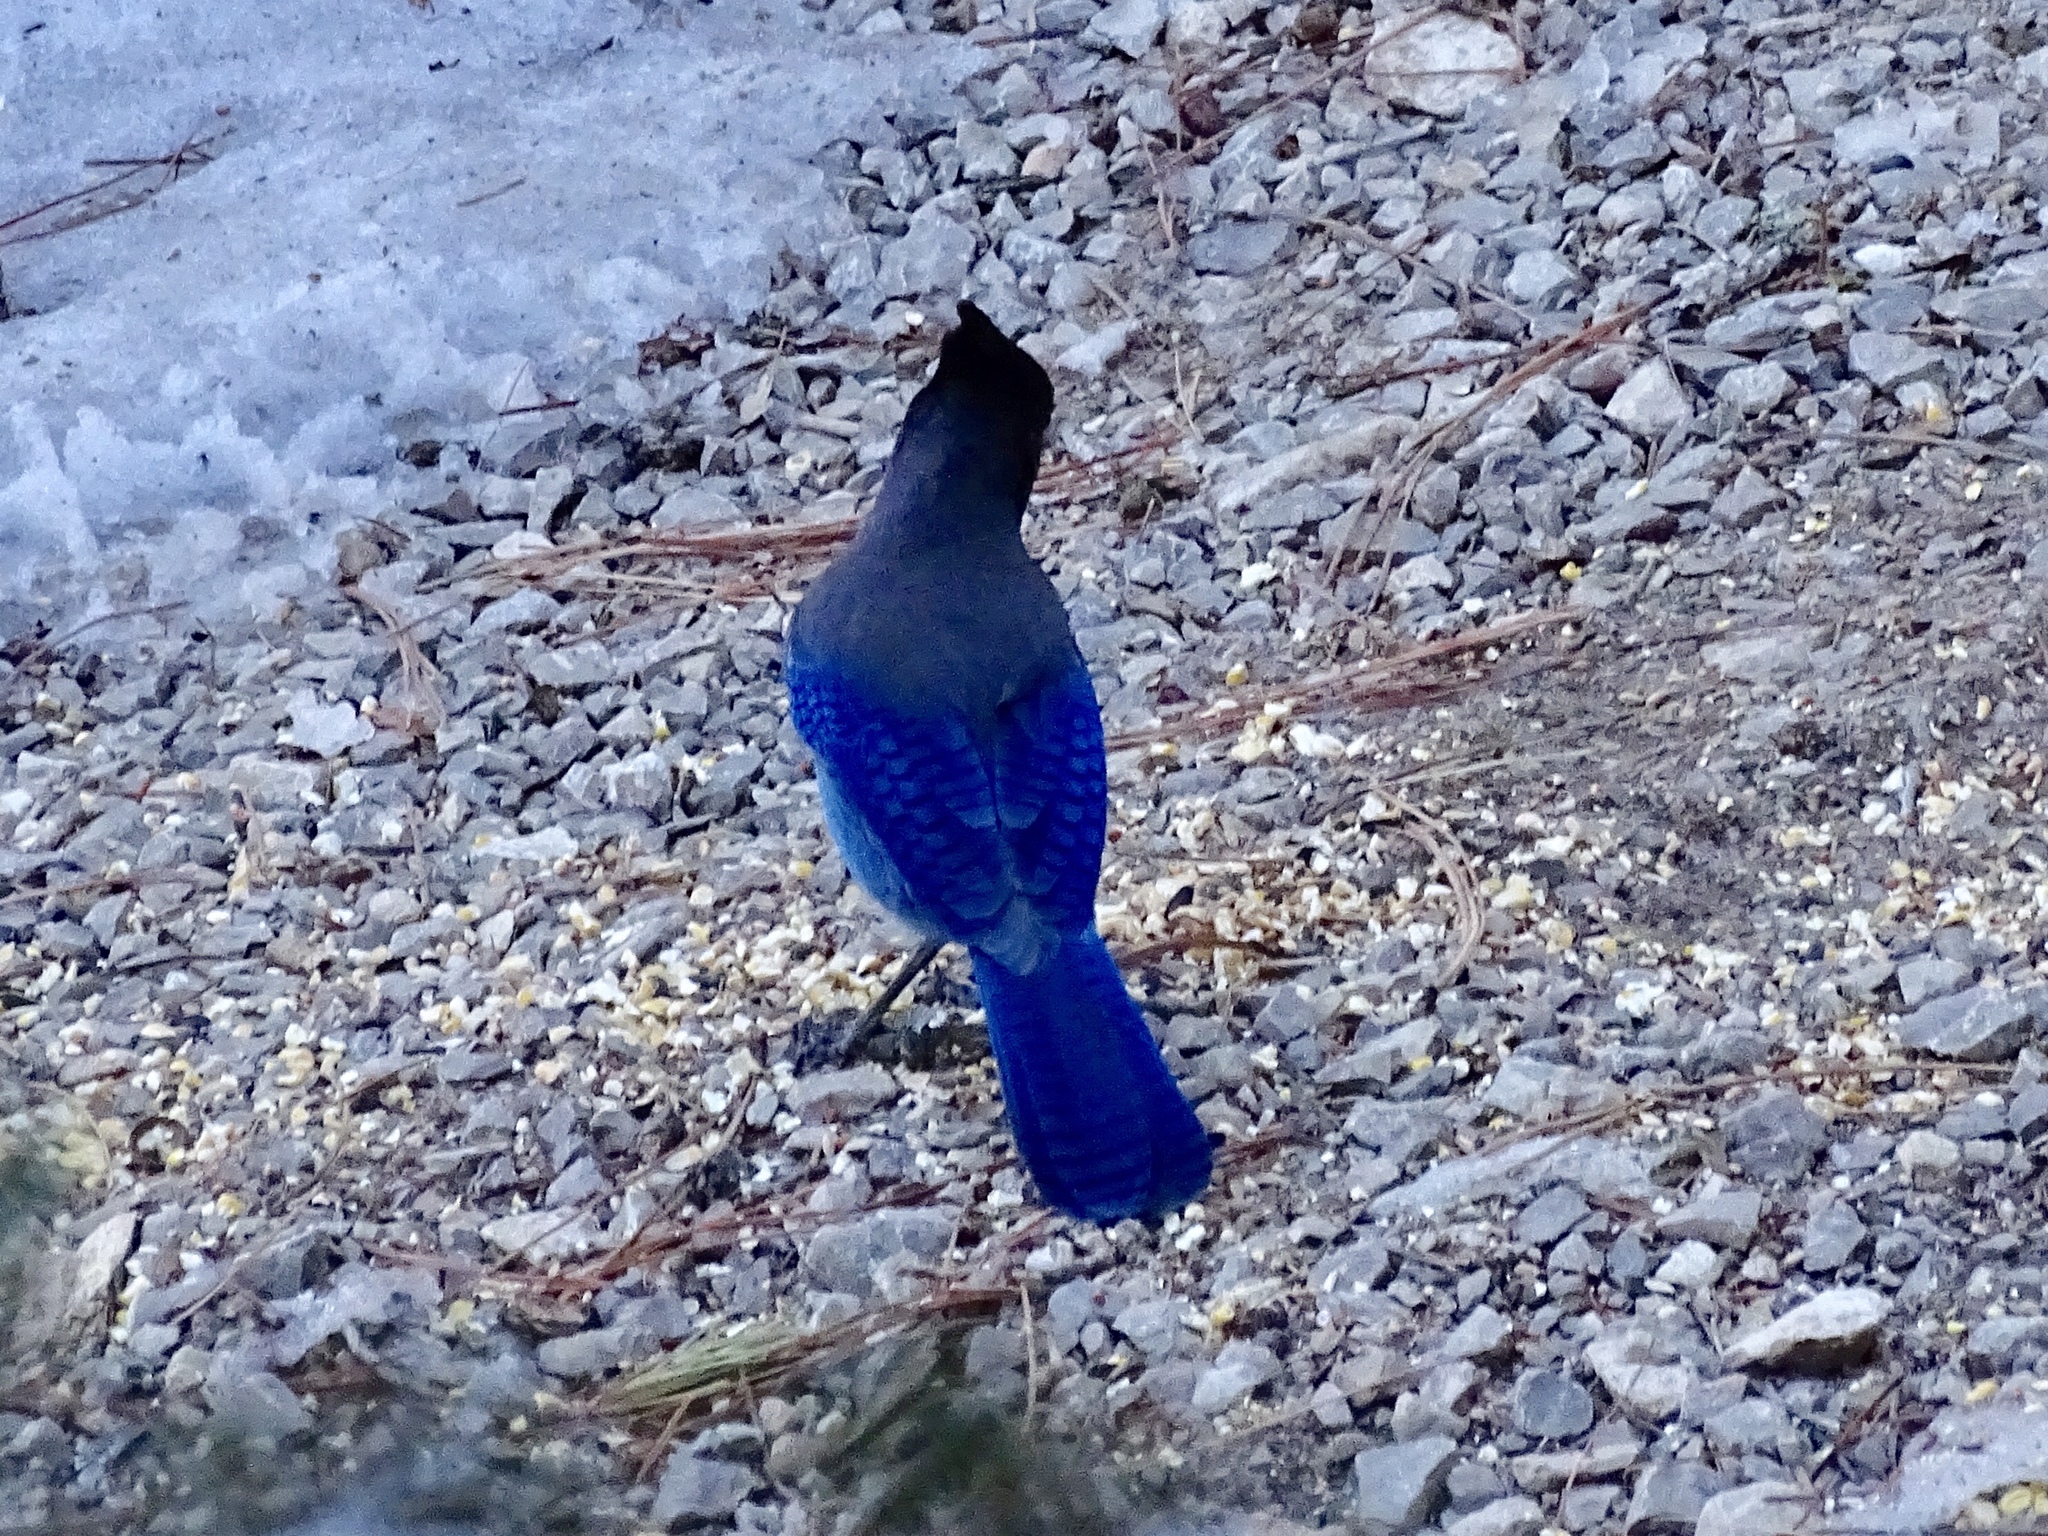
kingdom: Animalia
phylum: Chordata
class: Aves
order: Passeriformes
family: Corvidae
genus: Cyanocitta
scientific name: Cyanocitta stelleri
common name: Steller's jay
